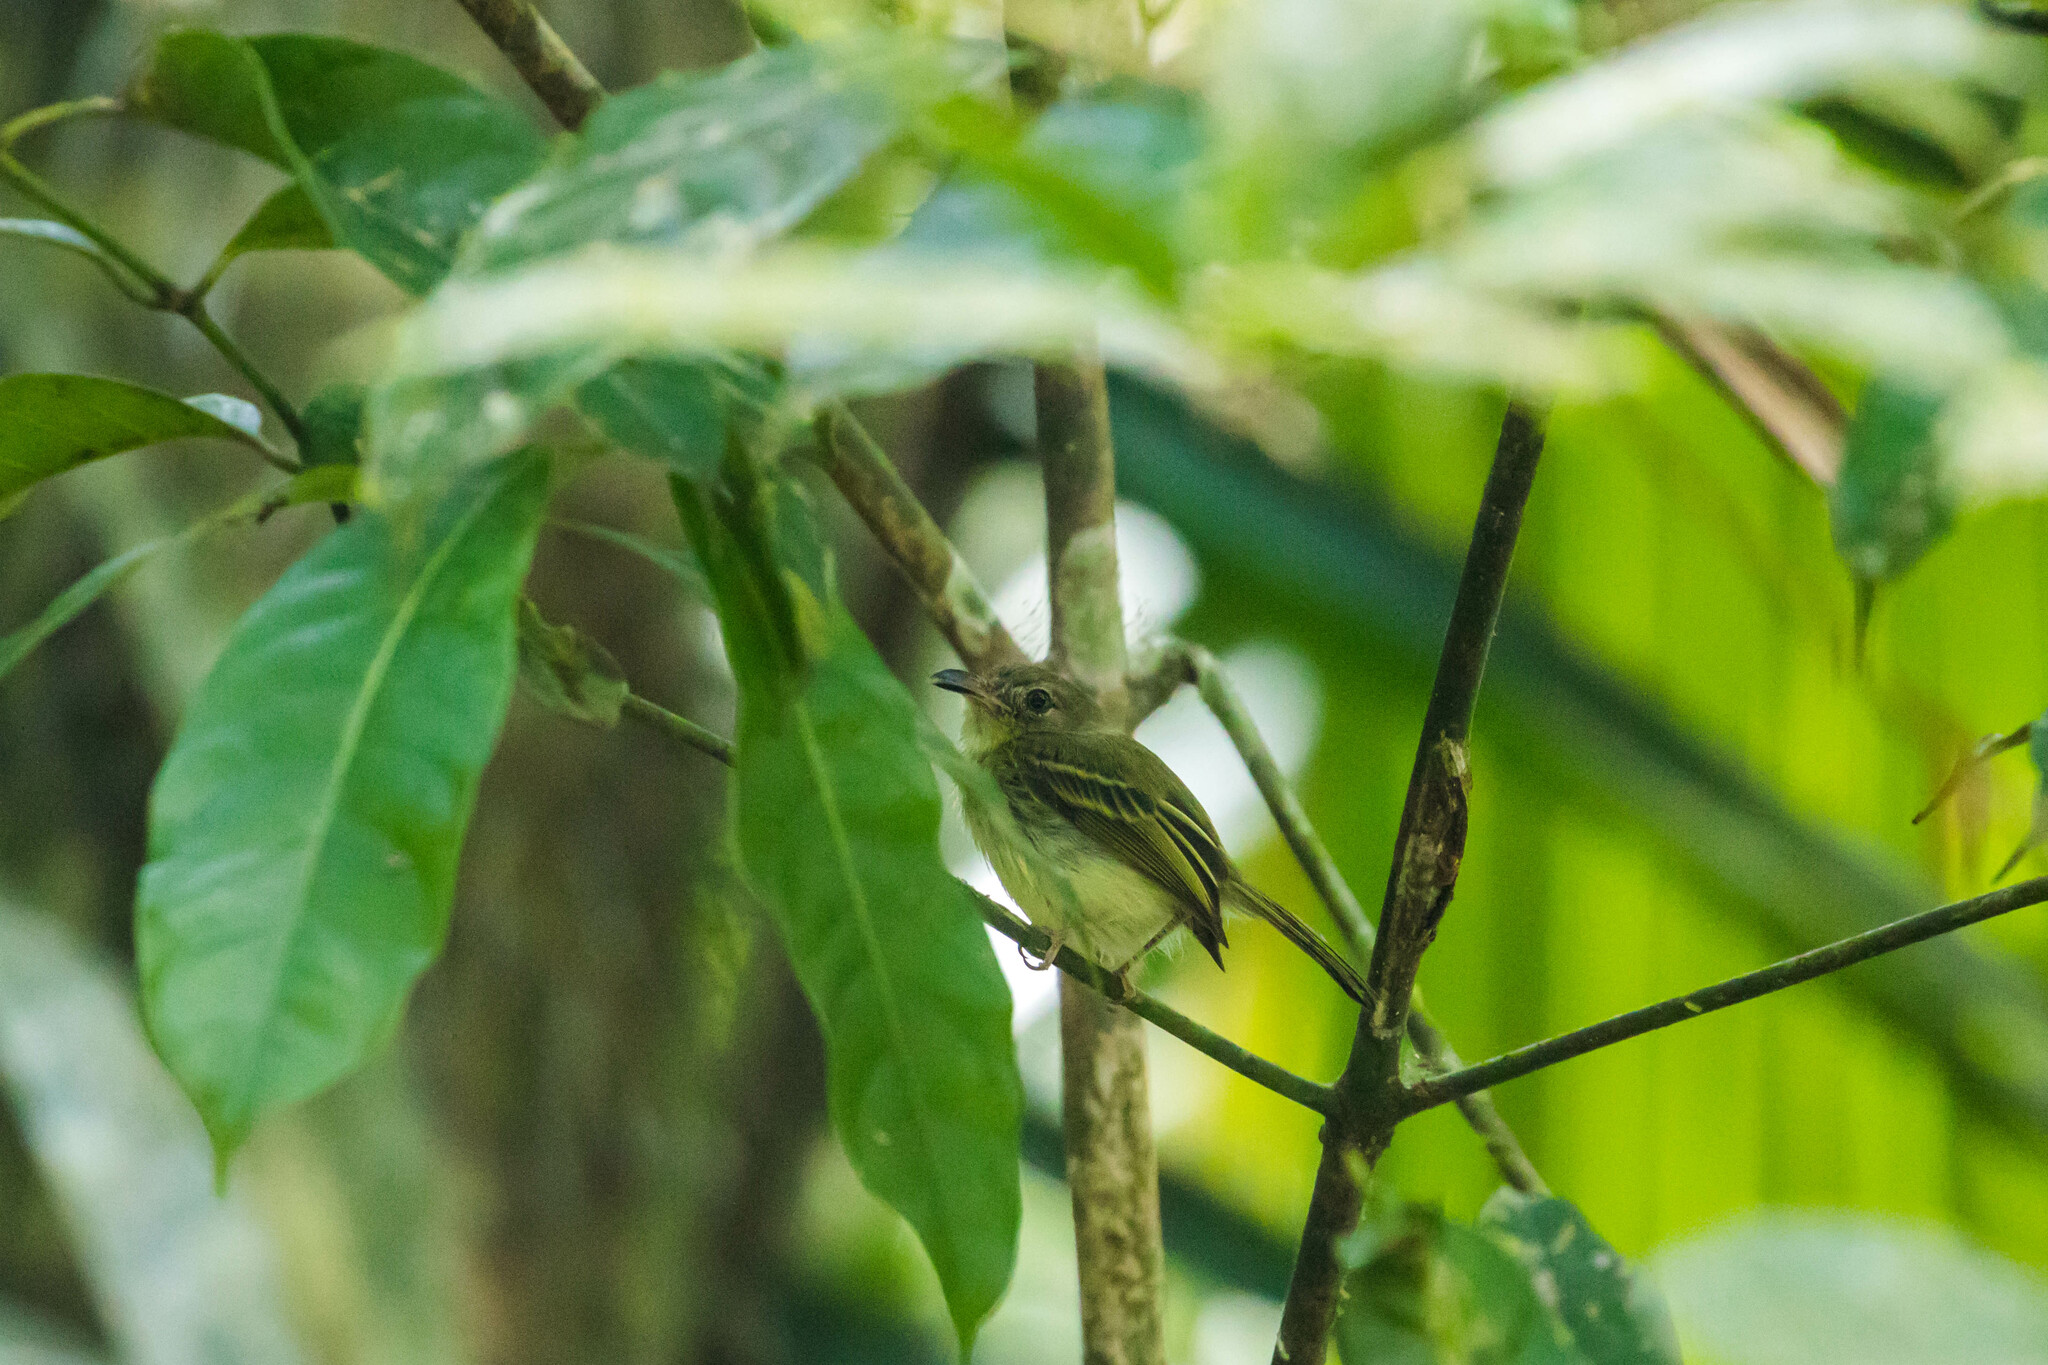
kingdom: Animalia
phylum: Chordata
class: Aves
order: Passeriformes
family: Tyrannidae
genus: Oncostoma
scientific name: Oncostoma olivaceum
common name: Southern bentbill
